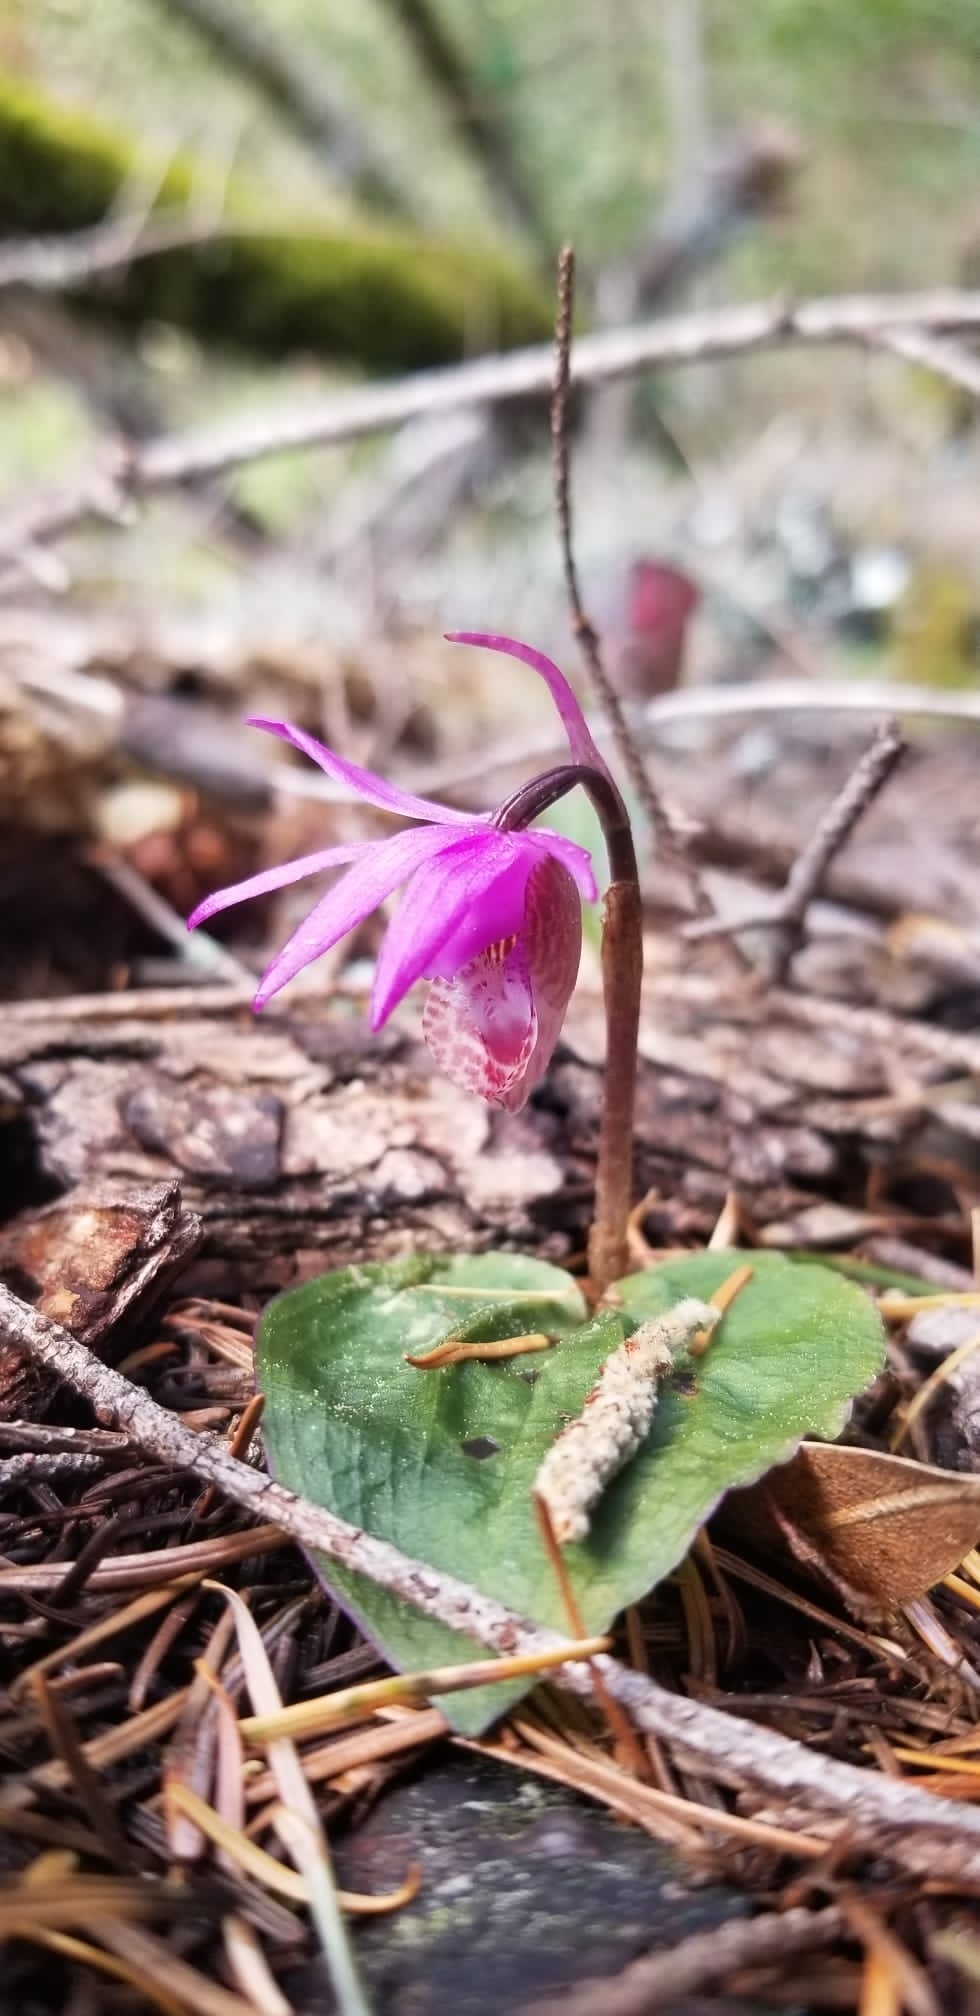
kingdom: Plantae
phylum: Tracheophyta
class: Liliopsida
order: Asparagales
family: Orchidaceae
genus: Calypso
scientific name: Calypso bulbosa
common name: Calypso
